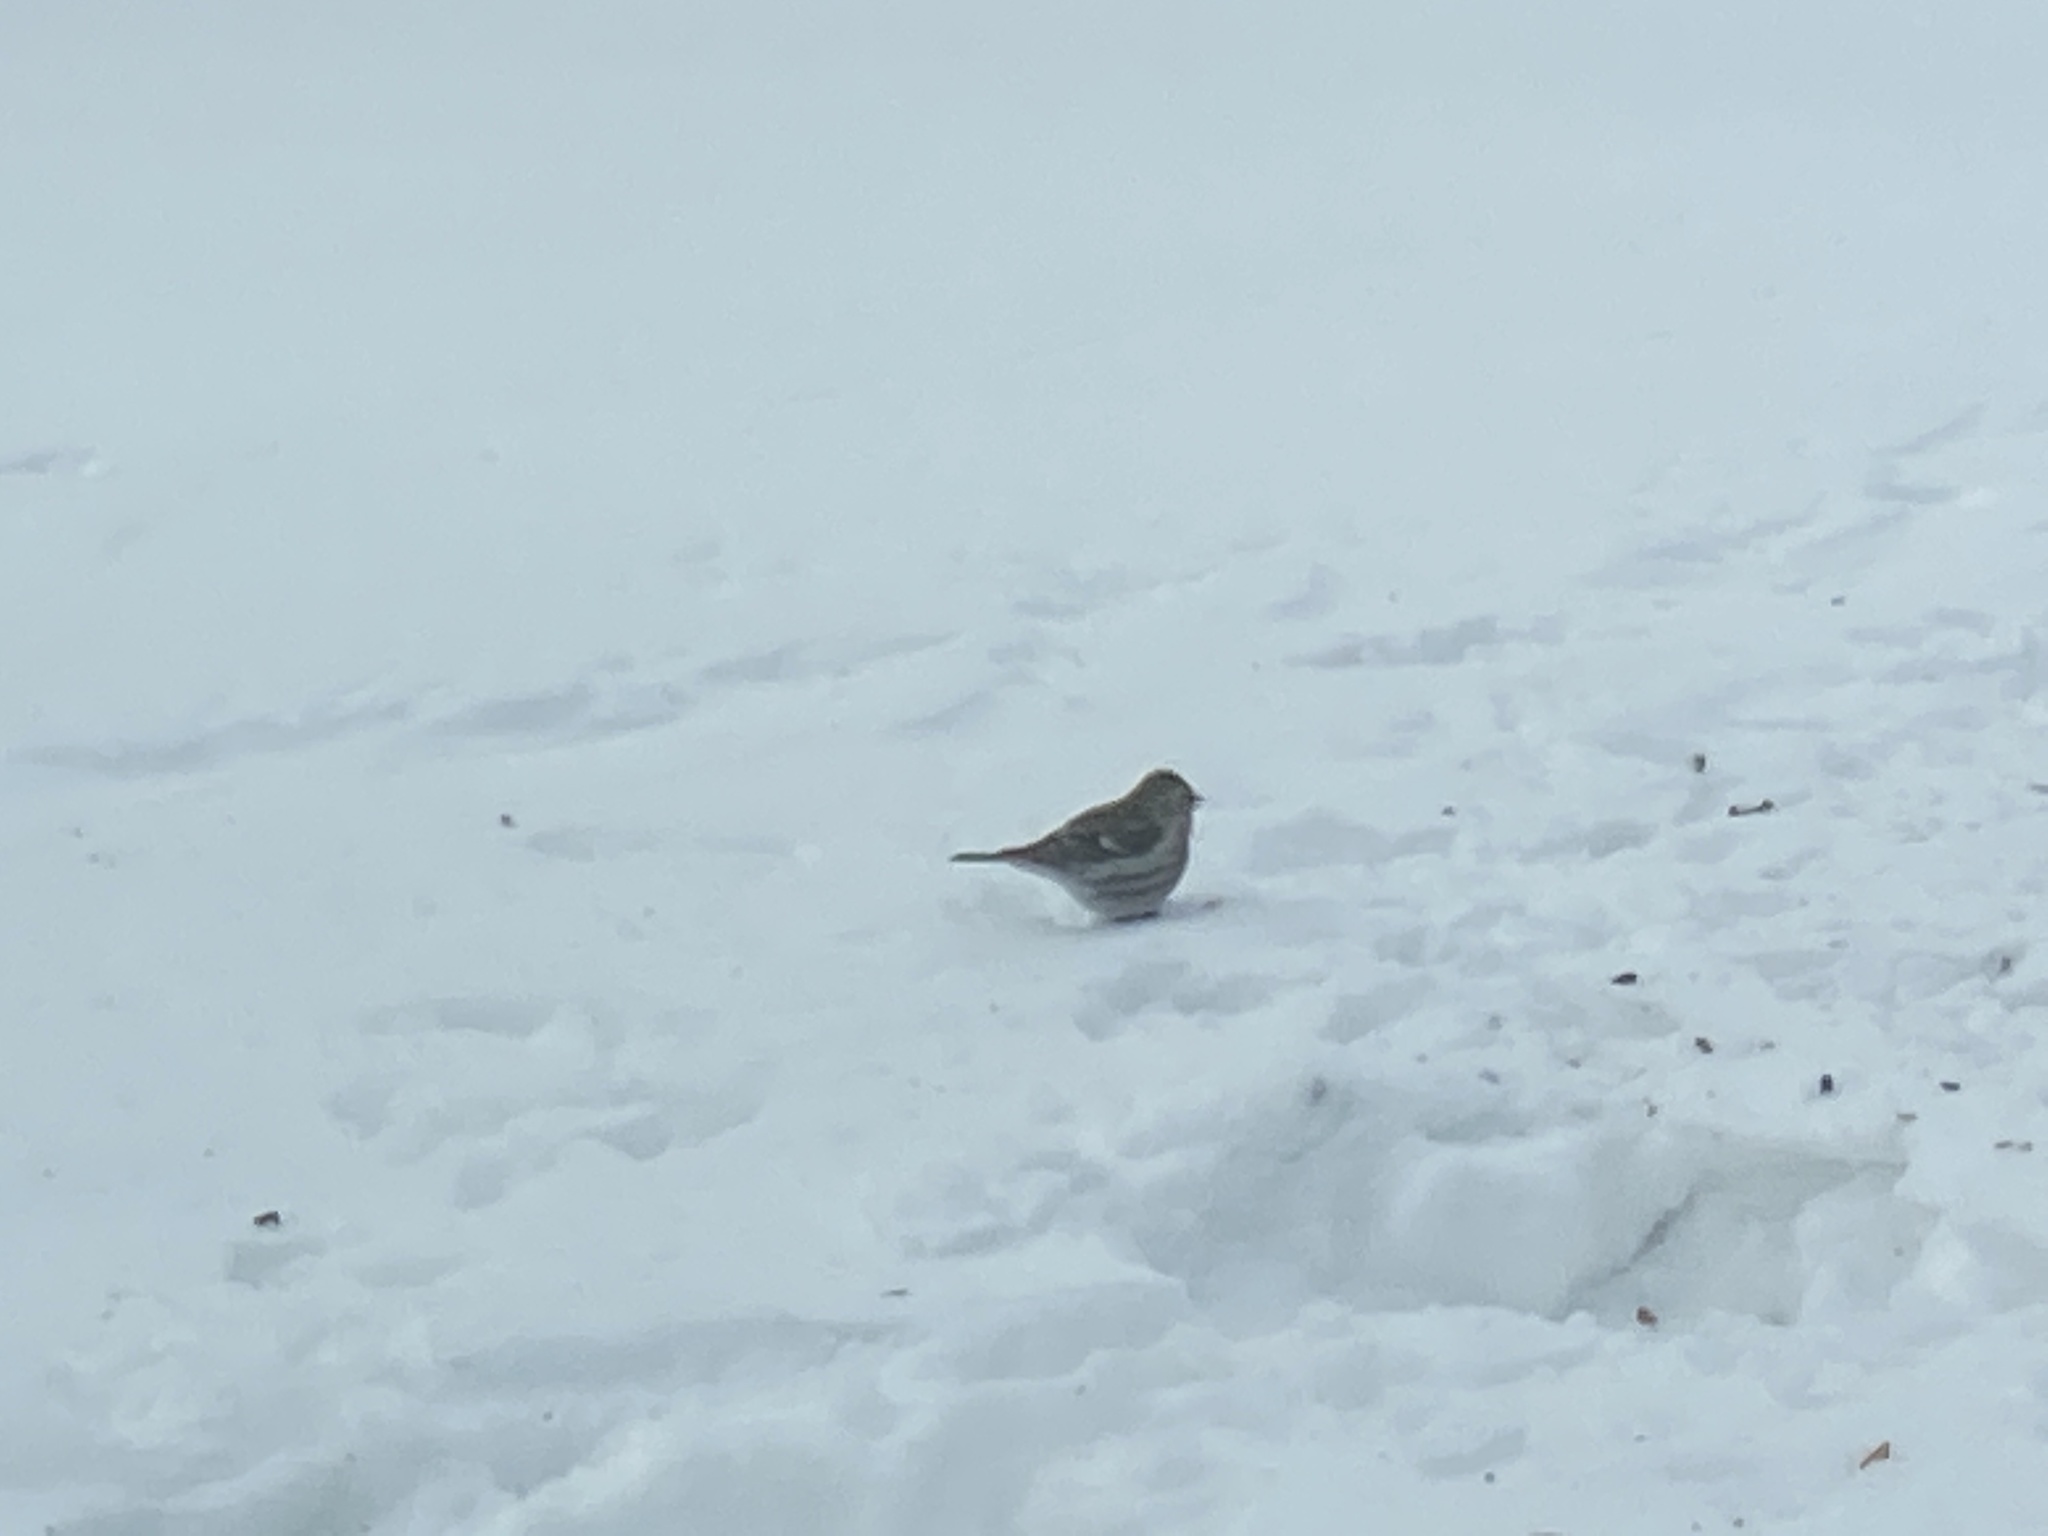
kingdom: Animalia
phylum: Chordata
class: Aves
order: Passeriformes
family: Fringillidae
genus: Acanthis
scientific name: Acanthis flammea
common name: Common redpoll
